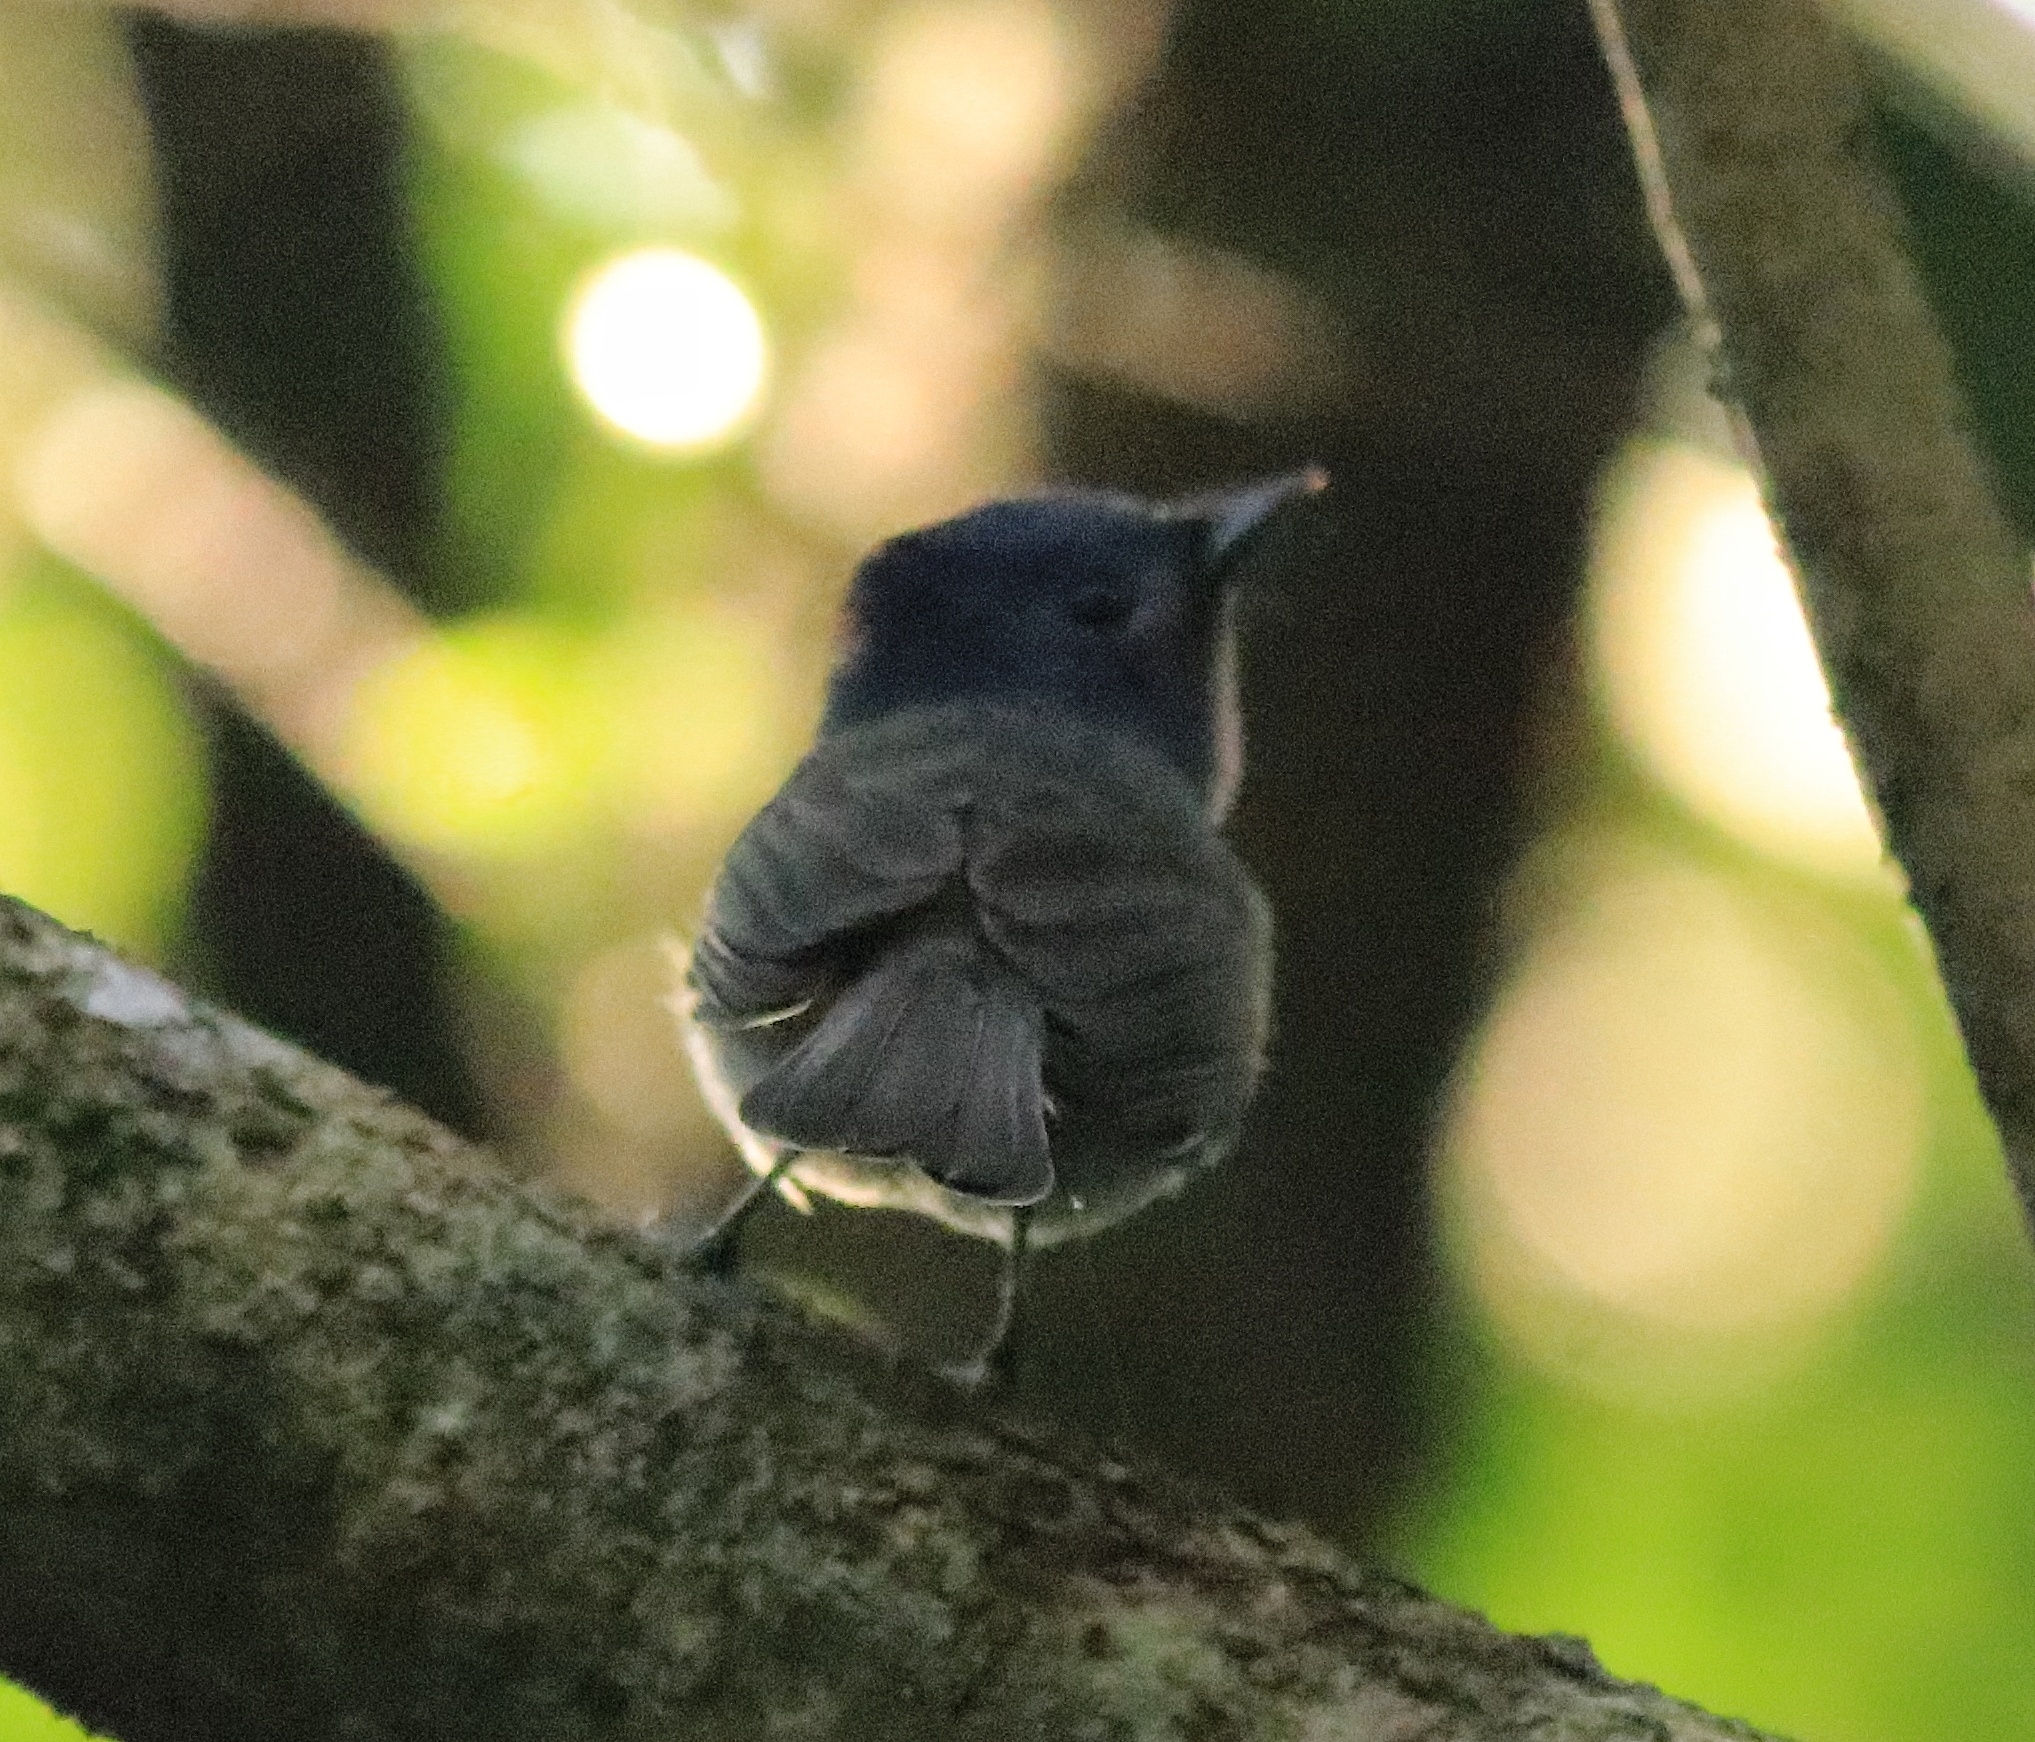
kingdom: Animalia
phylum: Chordata
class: Aves
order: Passeriformes
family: Monarchidae
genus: Hypothymis
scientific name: Hypothymis azurea
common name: Black-naped monarch
